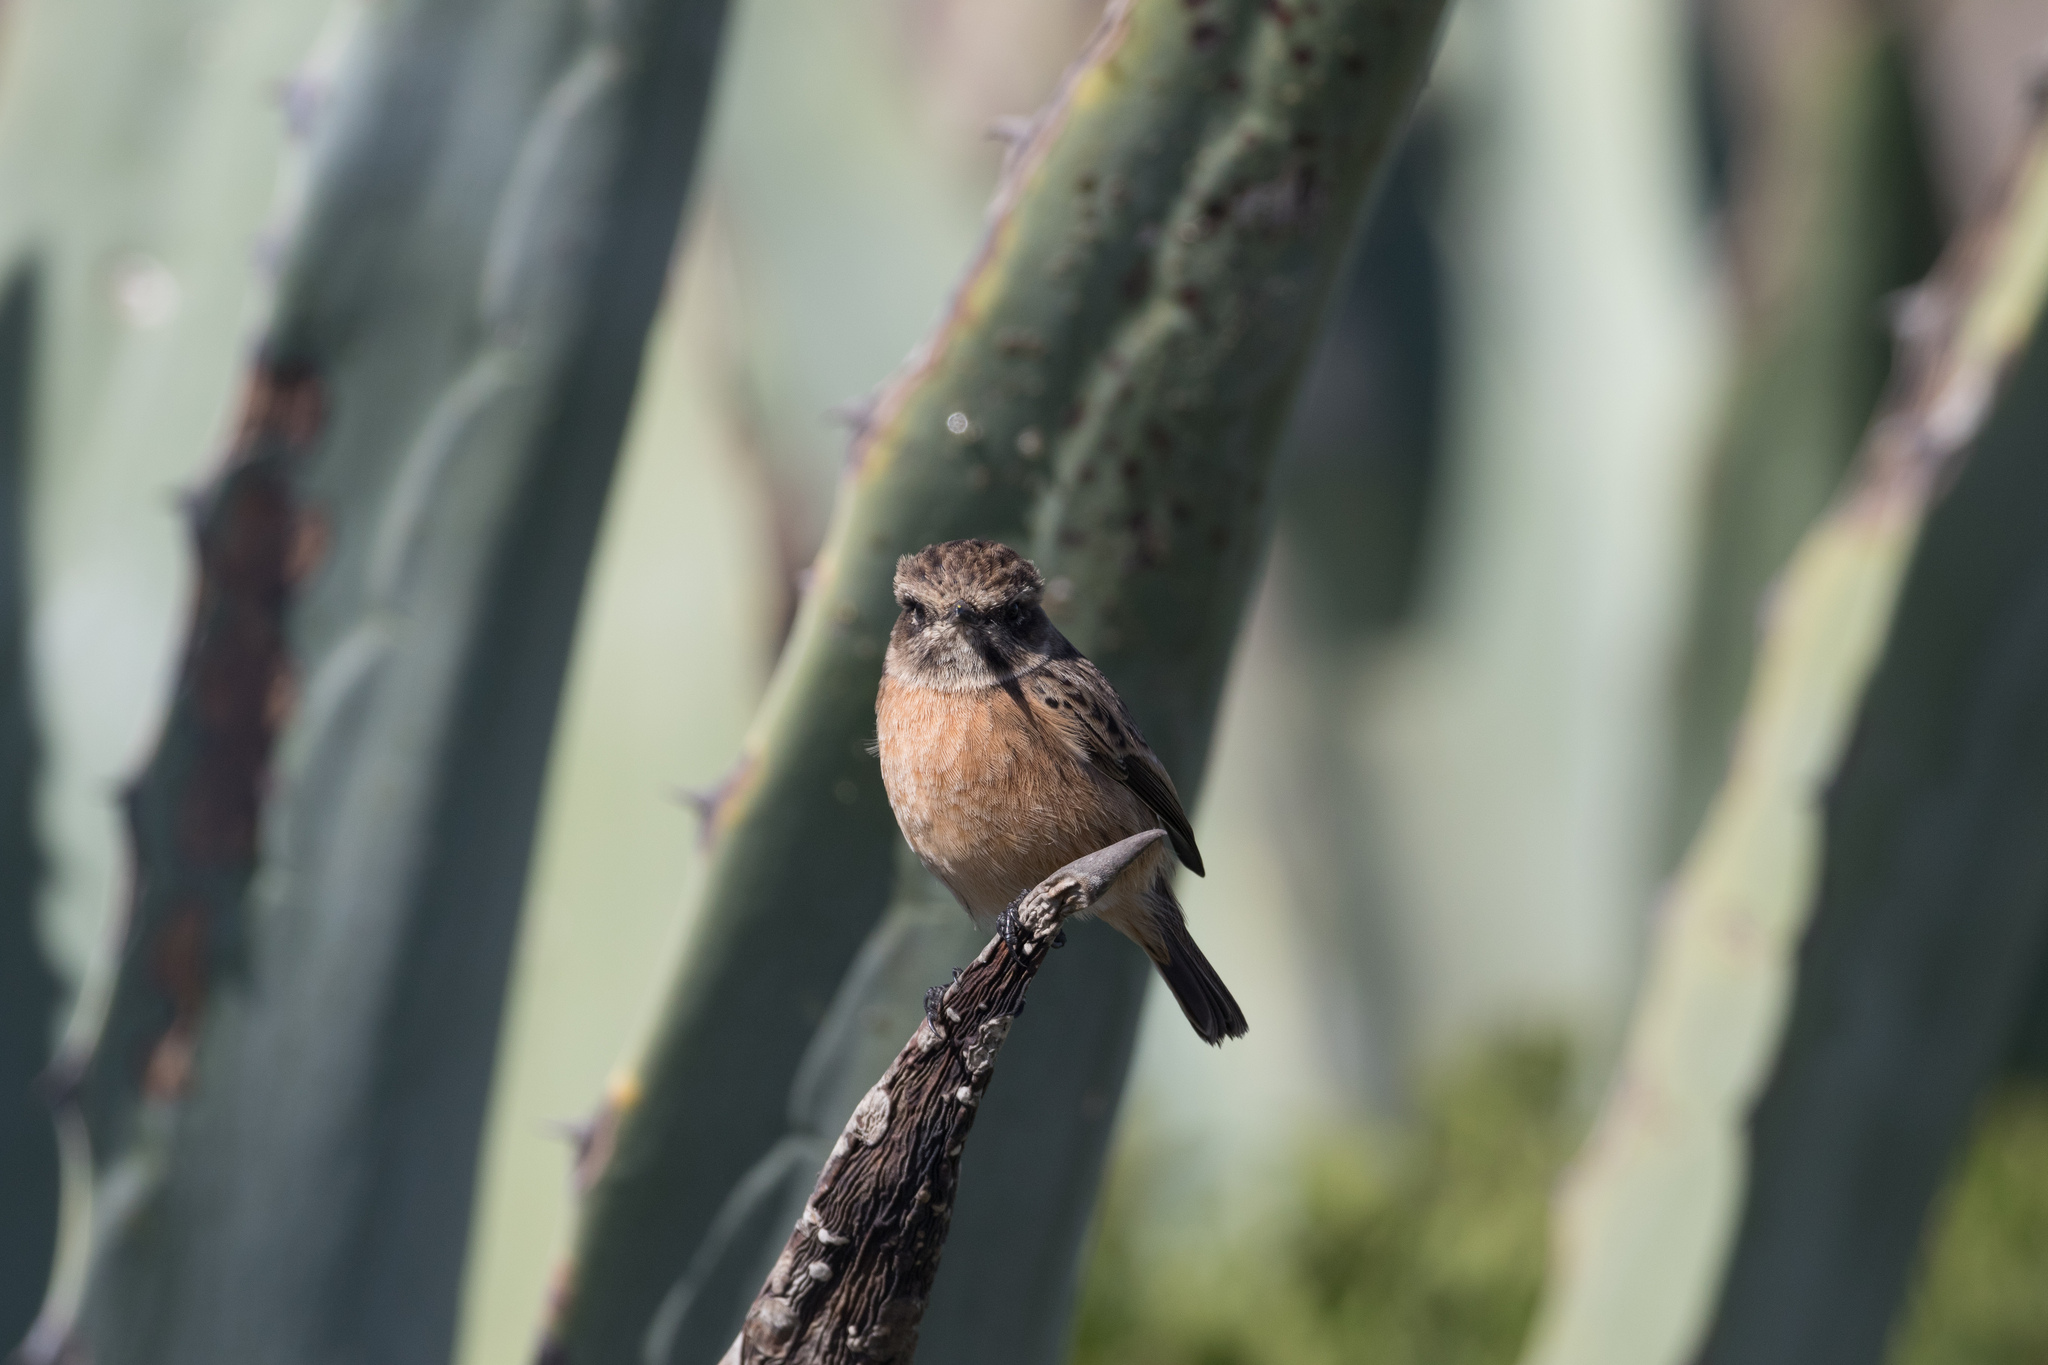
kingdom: Animalia
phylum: Chordata
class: Aves
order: Passeriformes
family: Muscicapidae
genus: Saxicola
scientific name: Saxicola rubicola
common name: European stonechat
